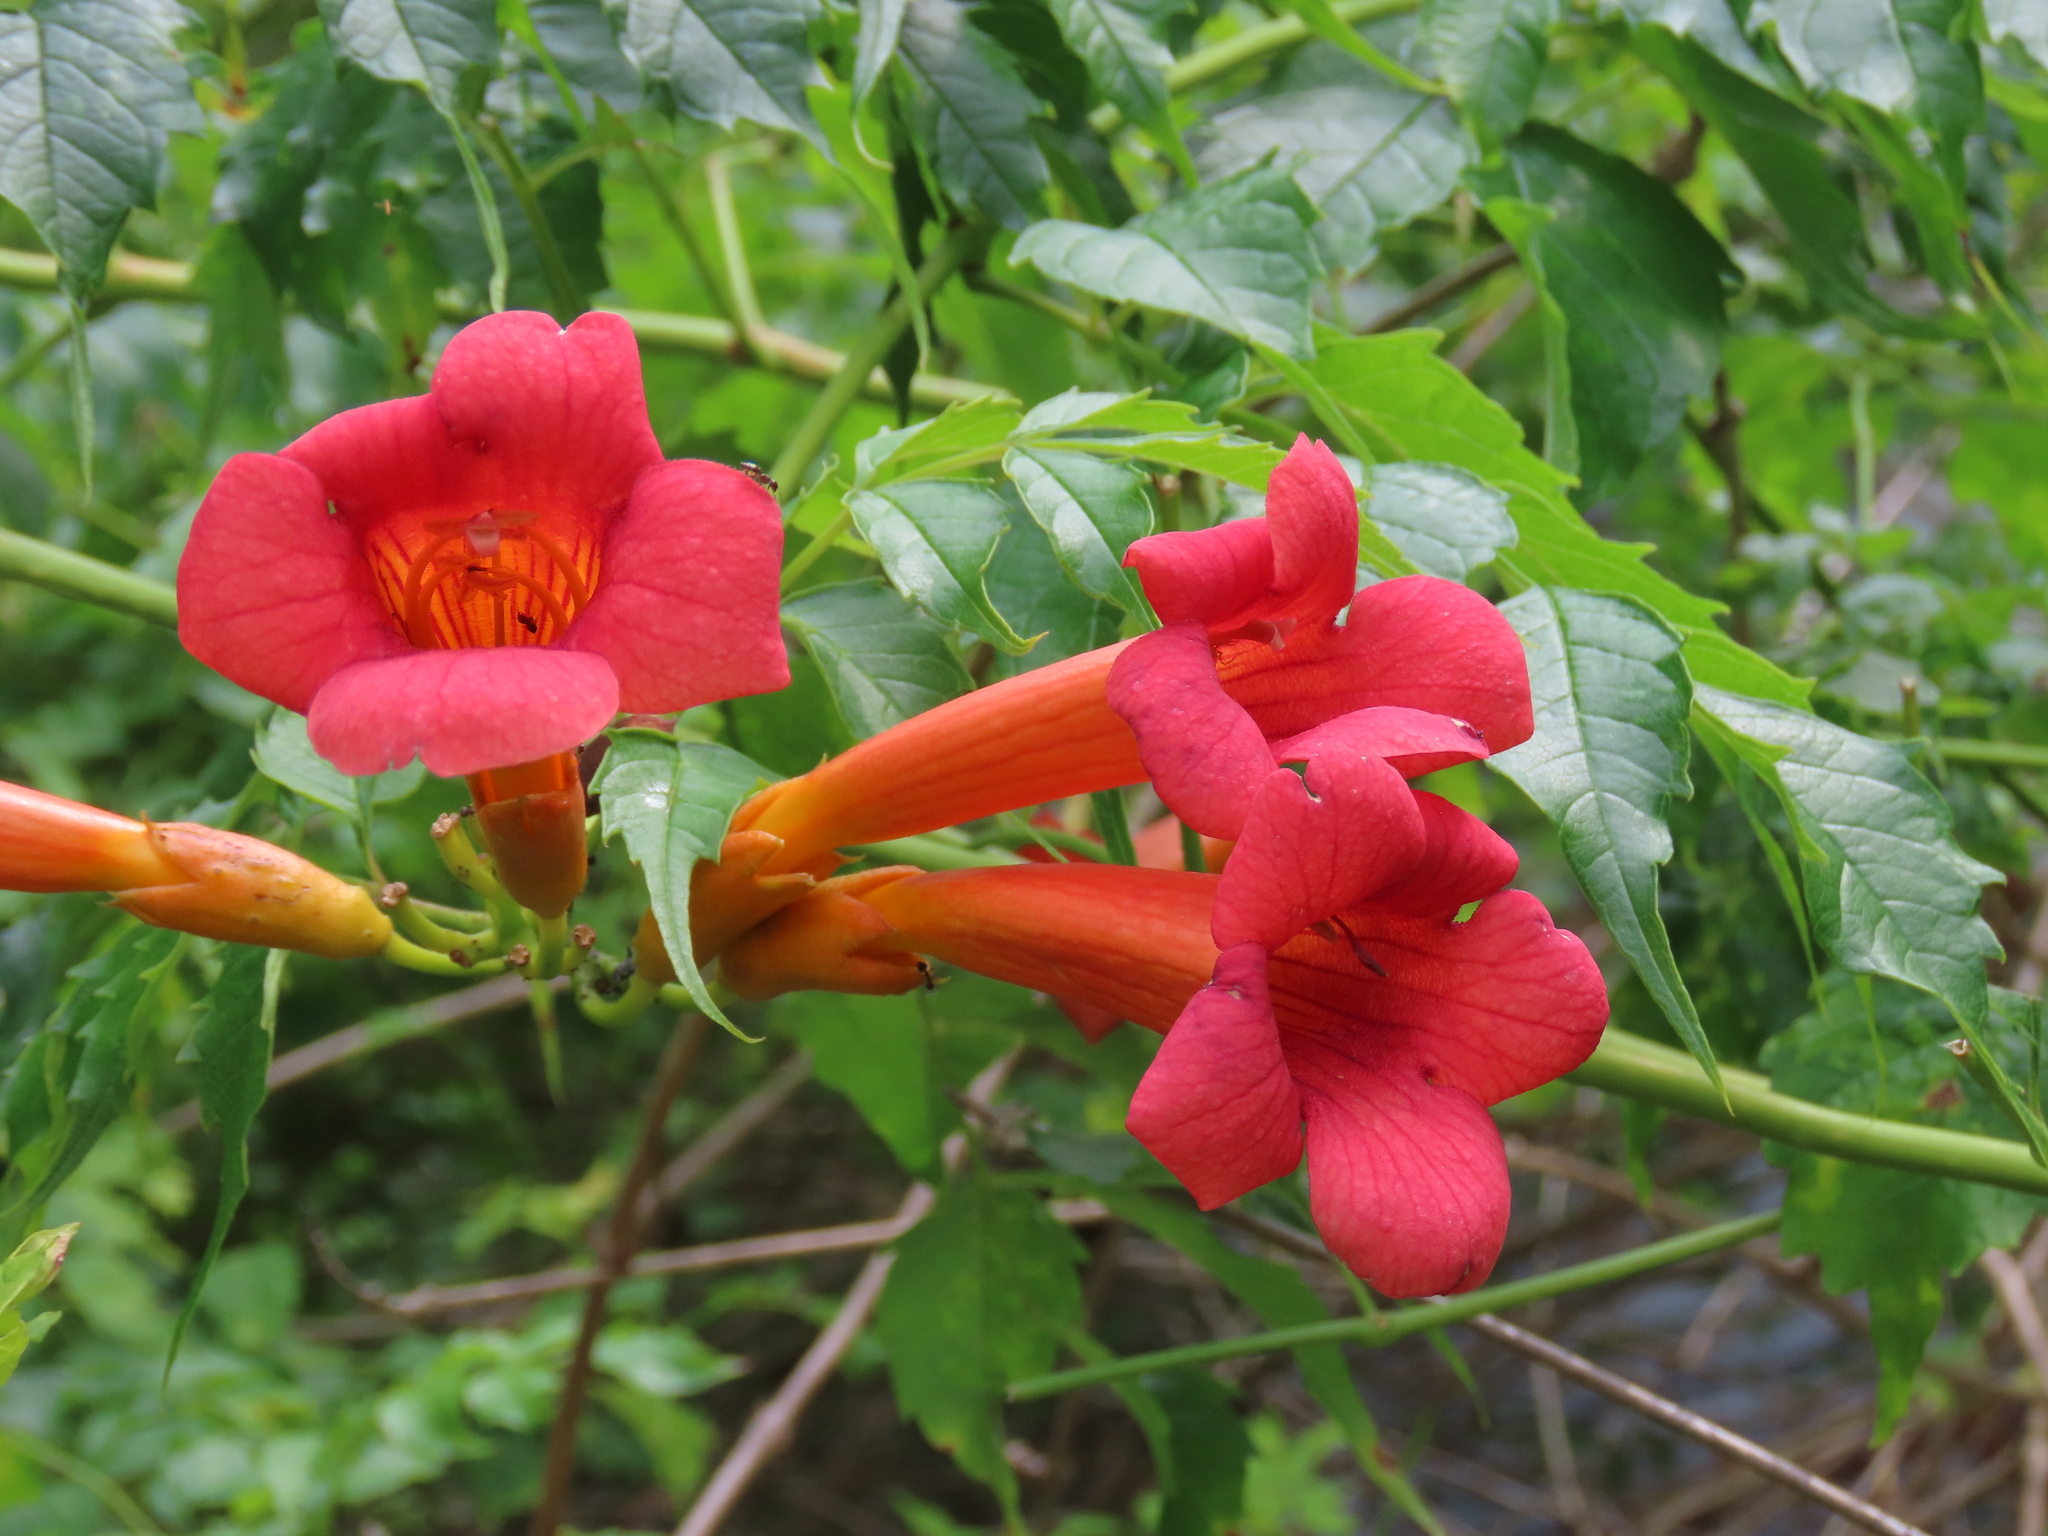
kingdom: Plantae
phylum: Tracheophyta
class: Magnoliopsida
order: Lamiales
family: Bignoniaceae
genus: Campsis
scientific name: Campsis radicans
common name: Trumpet-creeper
